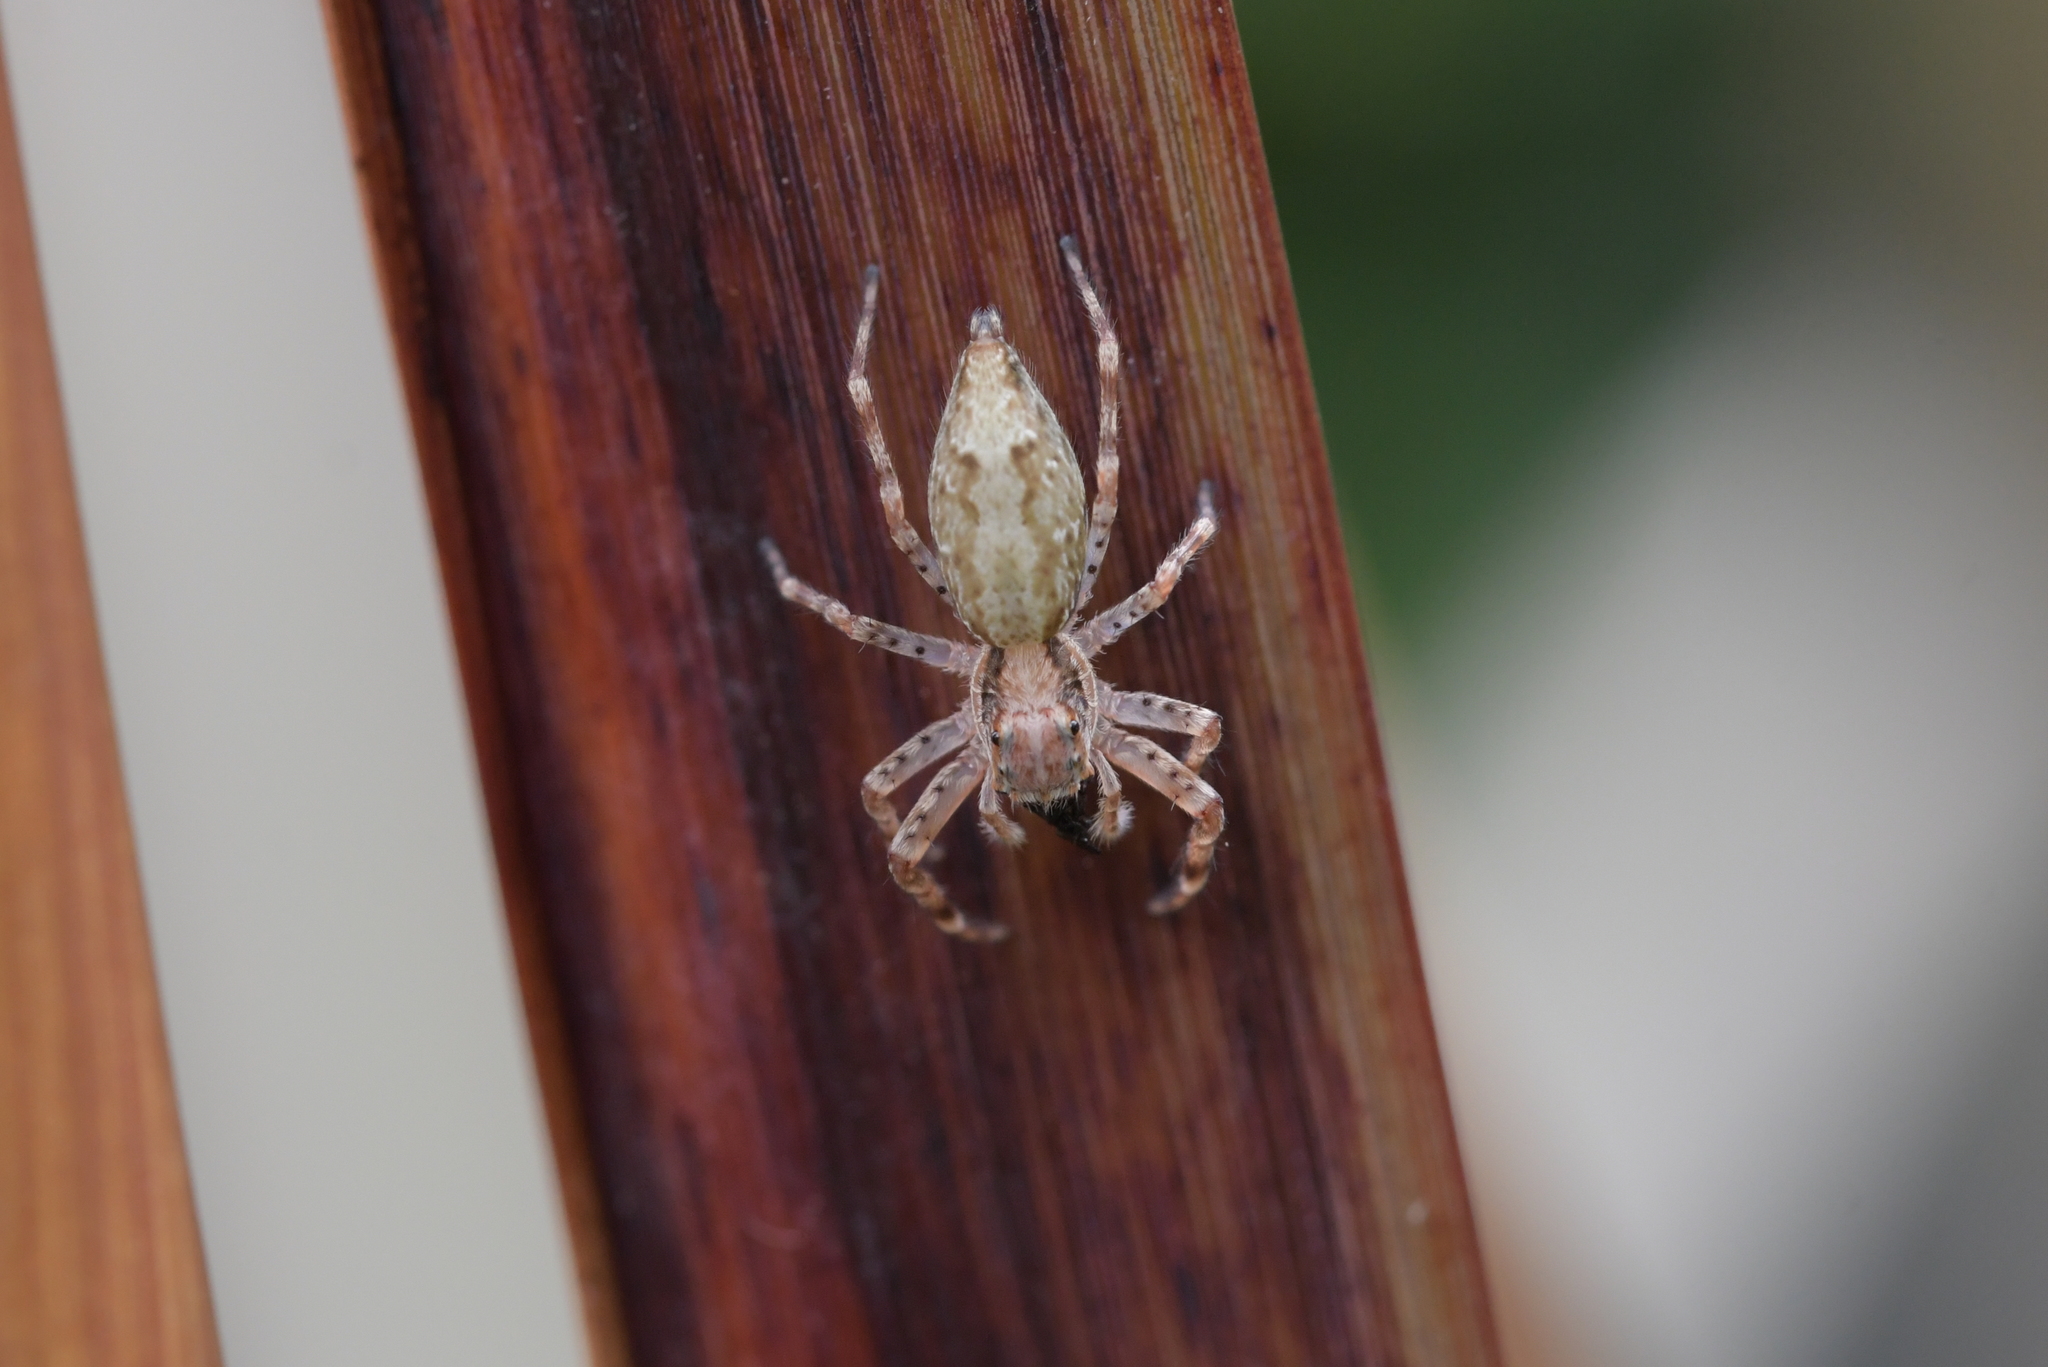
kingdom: Animalia
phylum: Arthropoda
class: Arachnida
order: Araneae
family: Salticidae
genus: Helpis
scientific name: Helpis minitabunda
